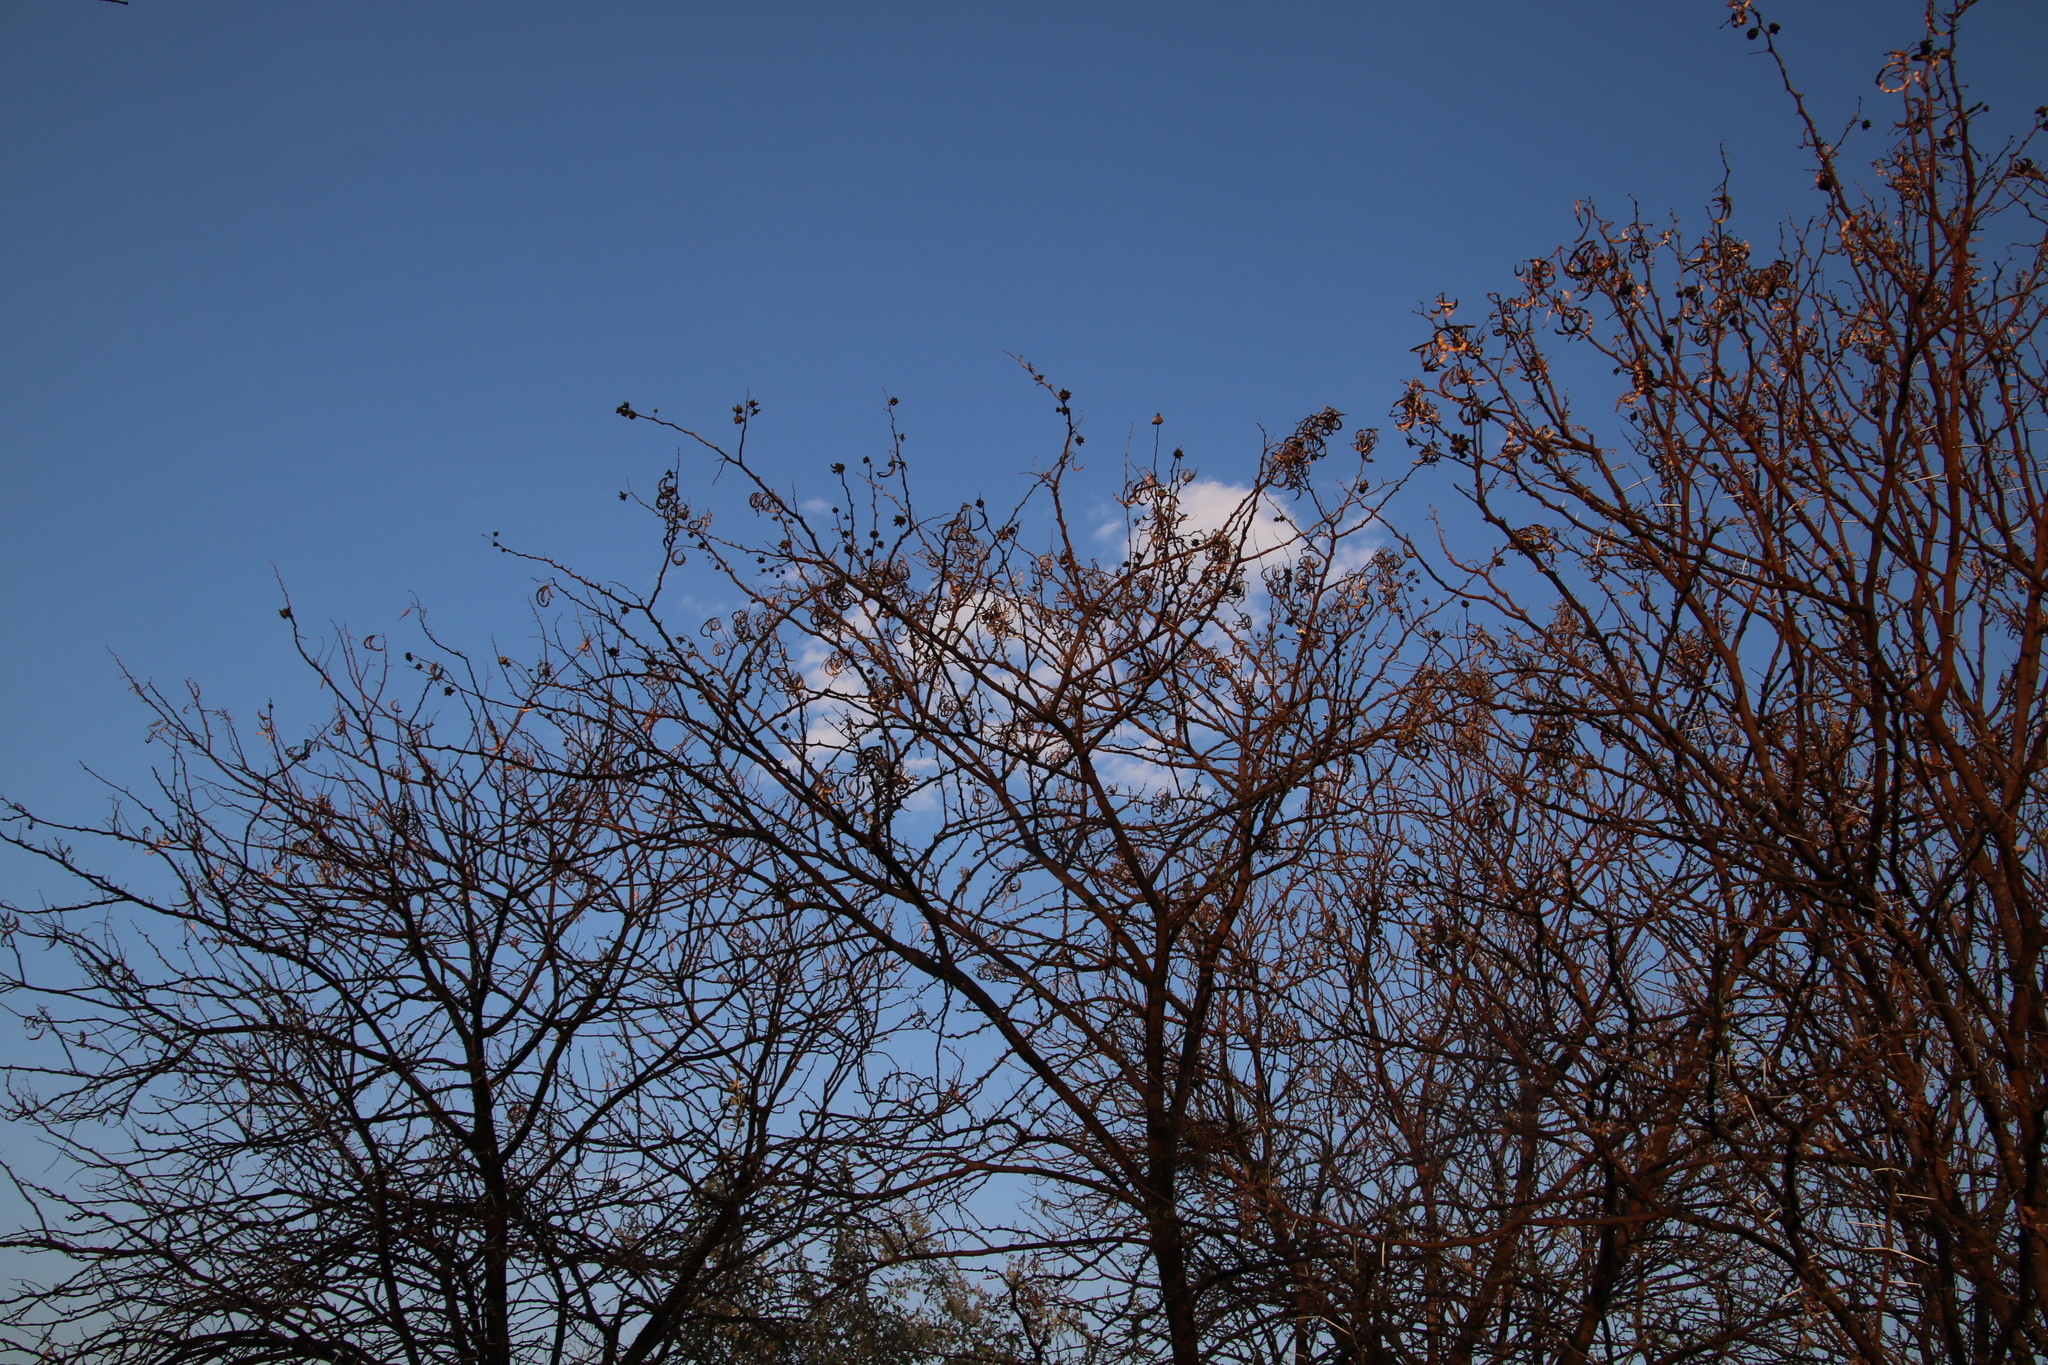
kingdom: Plantae
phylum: Tracheophyta
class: Magnoliopsida
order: Fabales
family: Fabaceae
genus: Vachellia
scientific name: Vachellia karroo
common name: Sweet thorn
